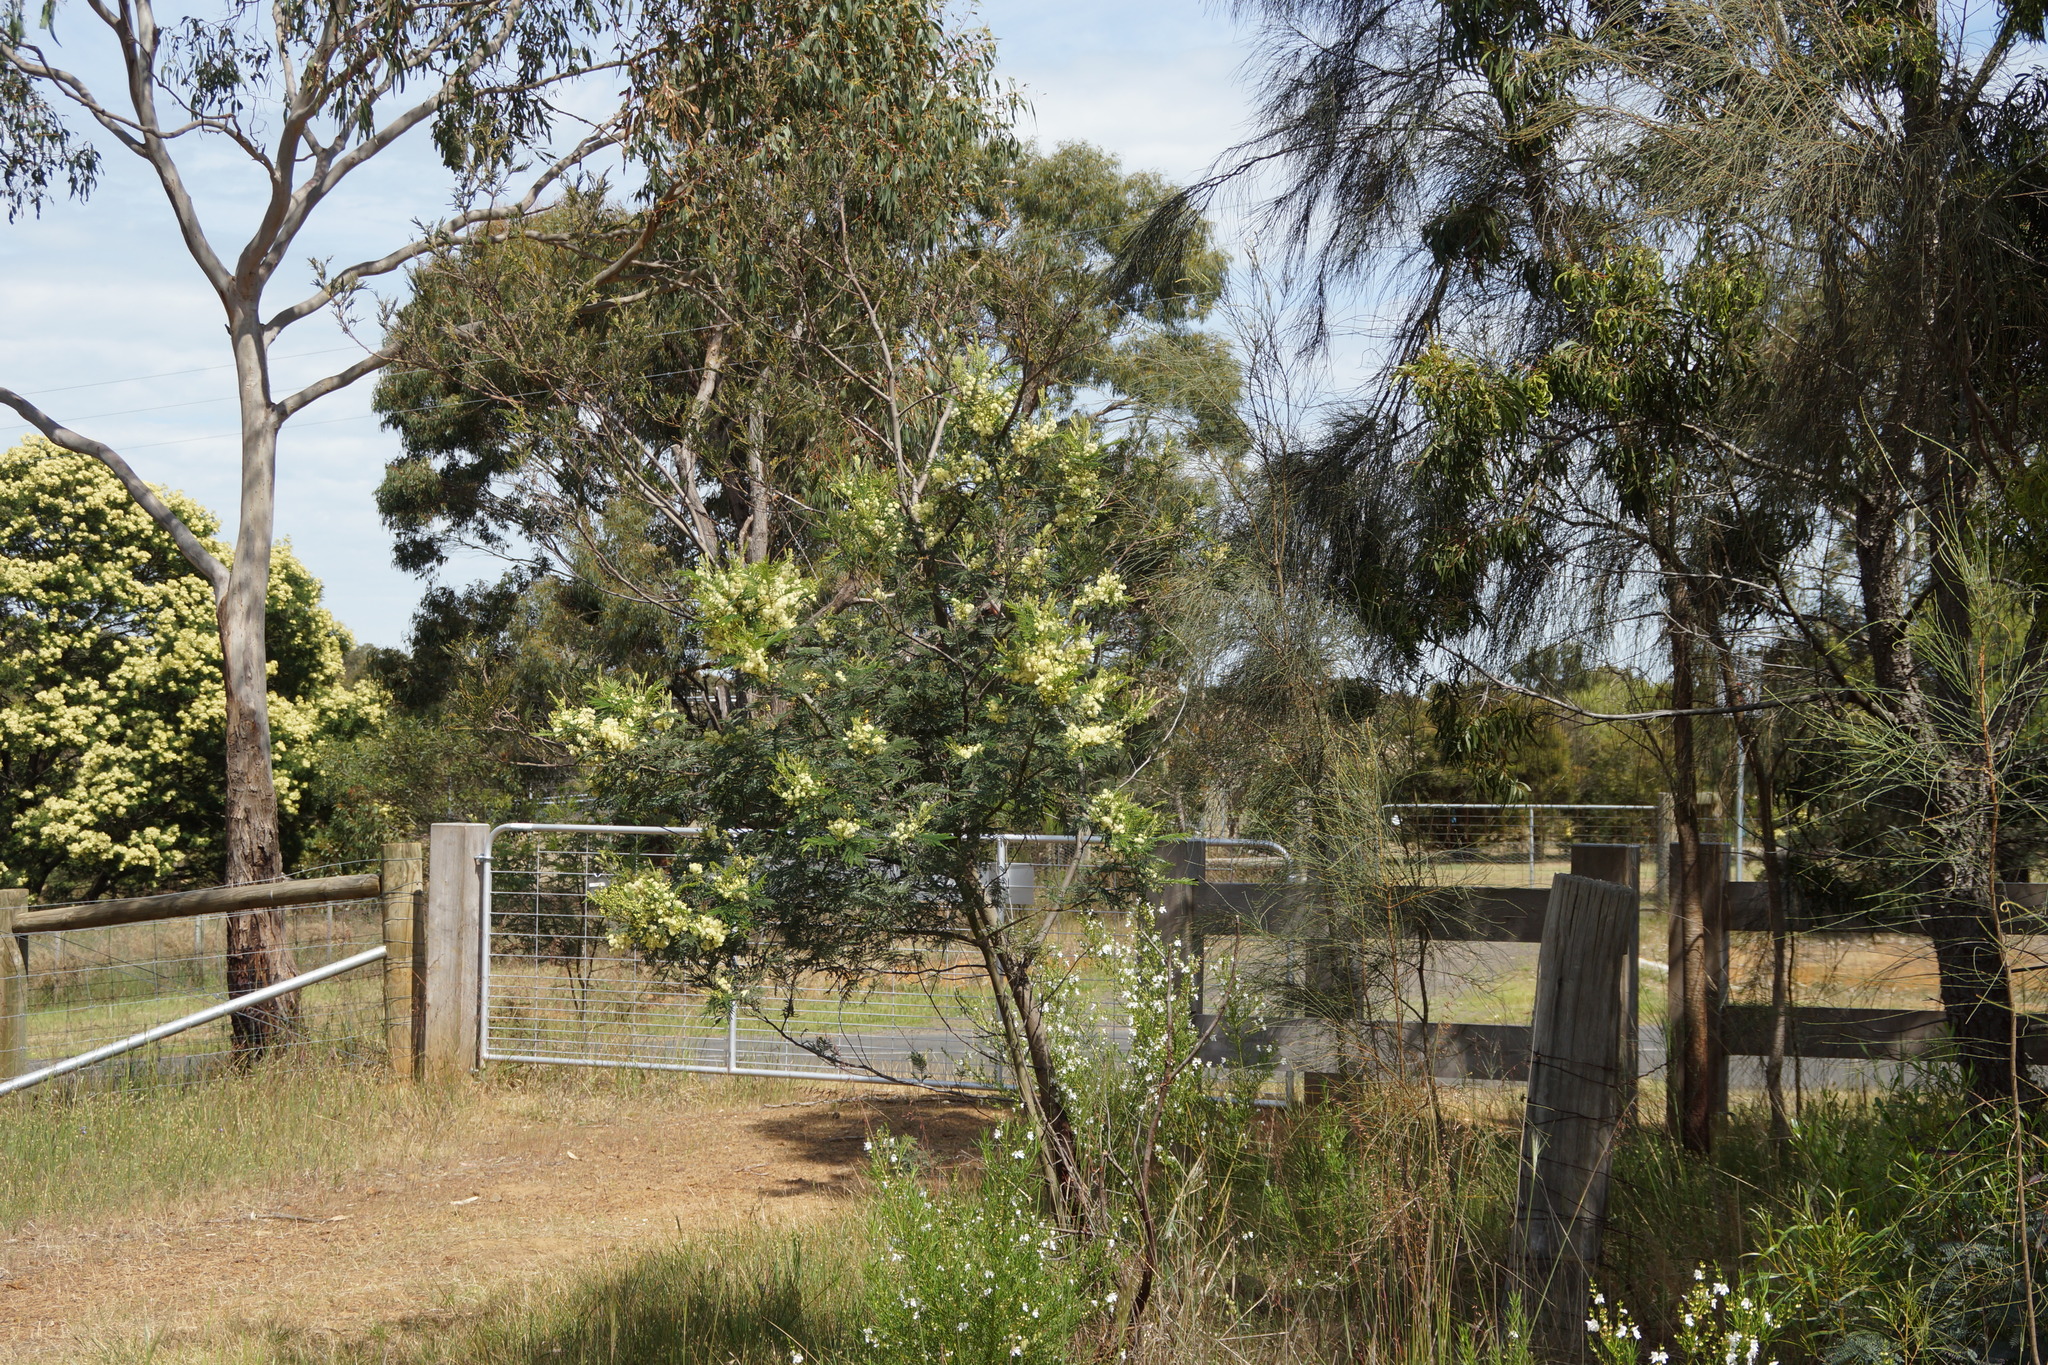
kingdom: Plantae
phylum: Tracheophyta
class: Magnoliopsida
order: Fabales
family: Fabaceae
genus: Acacia
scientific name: Acacia mearnsii
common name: Black wattle
